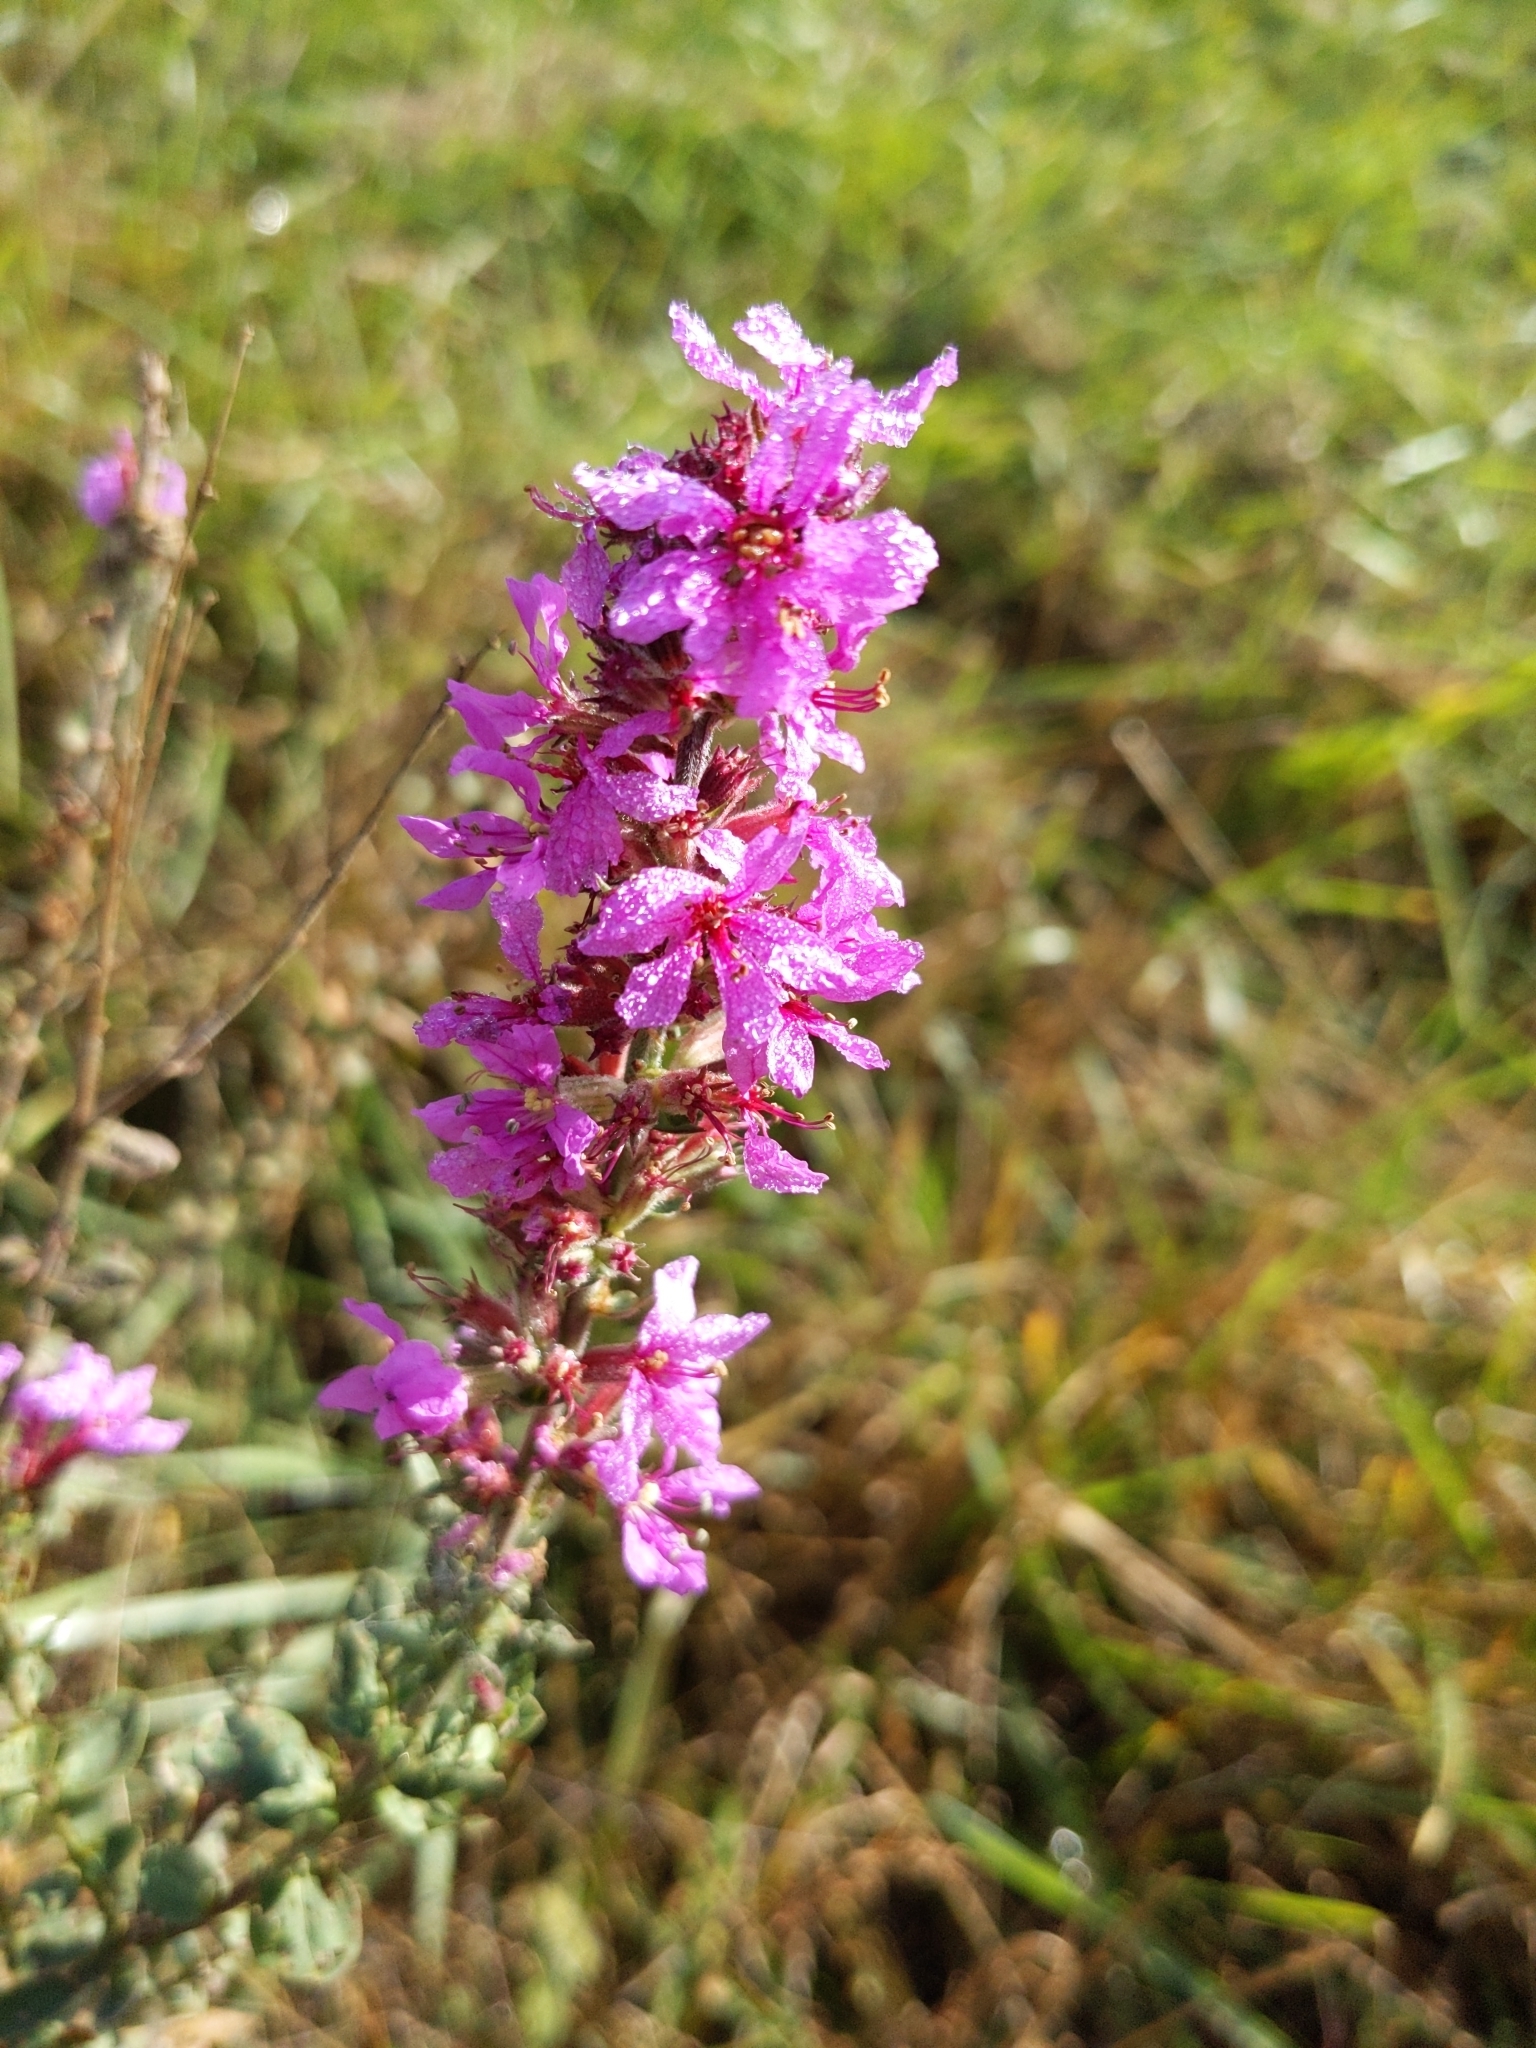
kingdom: Plantae
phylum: Tracheophyta
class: Magnoliopsida
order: Myrtales
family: Lythraceae
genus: Lythrum
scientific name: Lythrum salicaria
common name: Purple loosestrife
